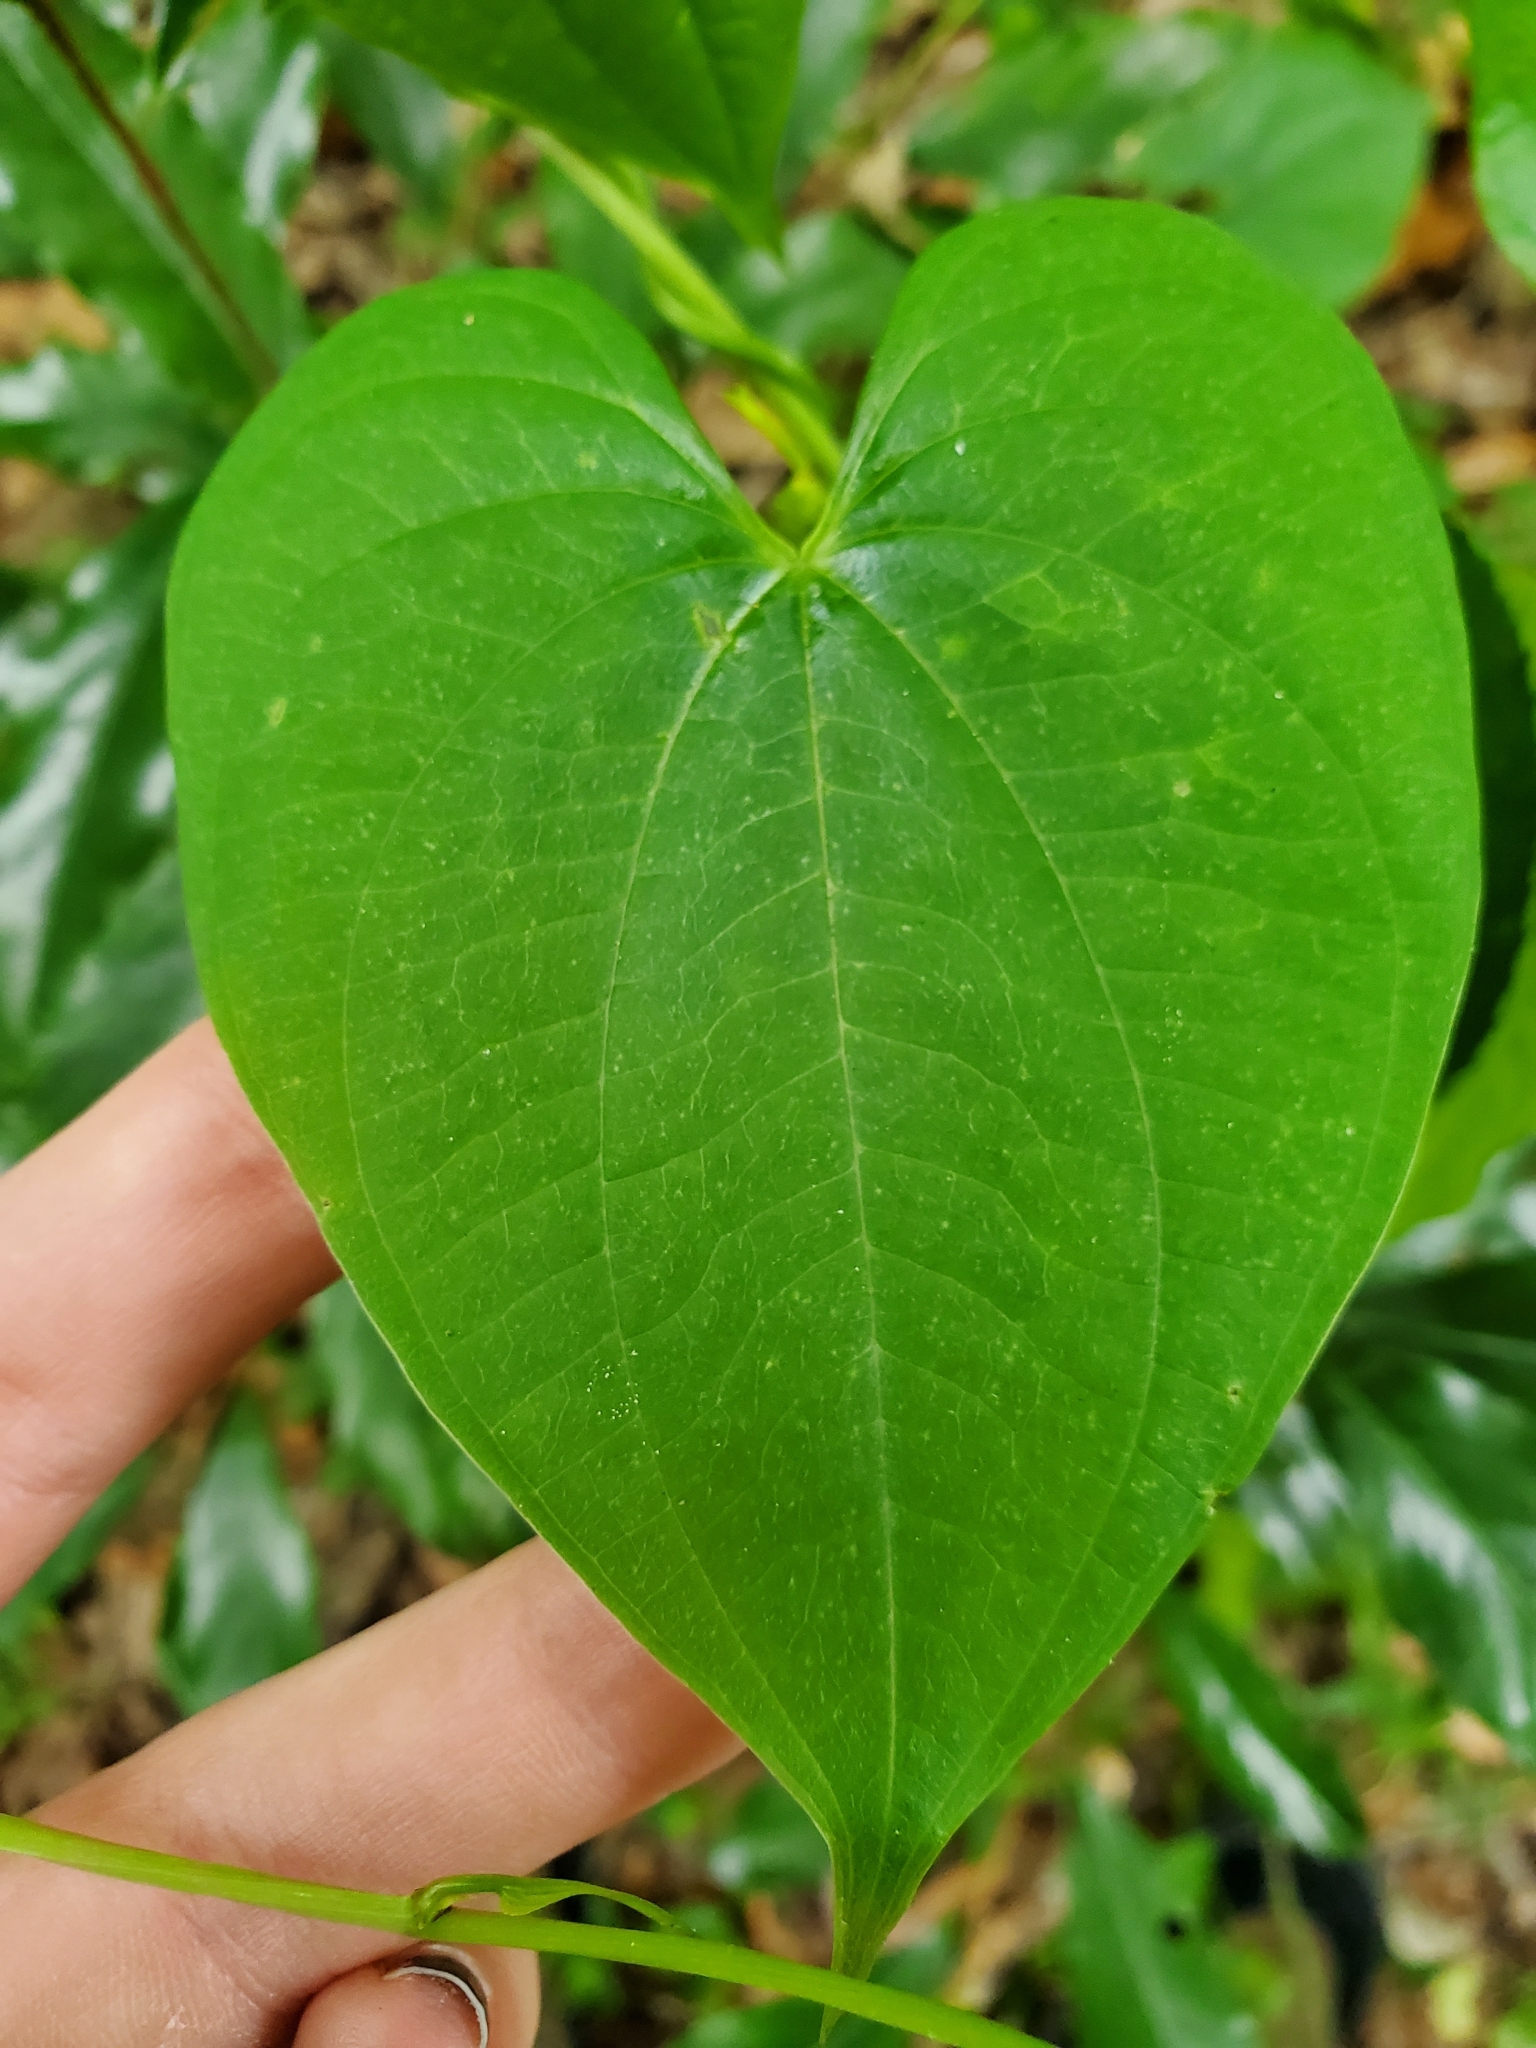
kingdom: Plantae
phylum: Tracheophyta
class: Liliopsida
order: Dioscoreales
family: Dioscoreaceae
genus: Dioscorea
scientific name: Dioscorea bulbifera
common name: Air yam
